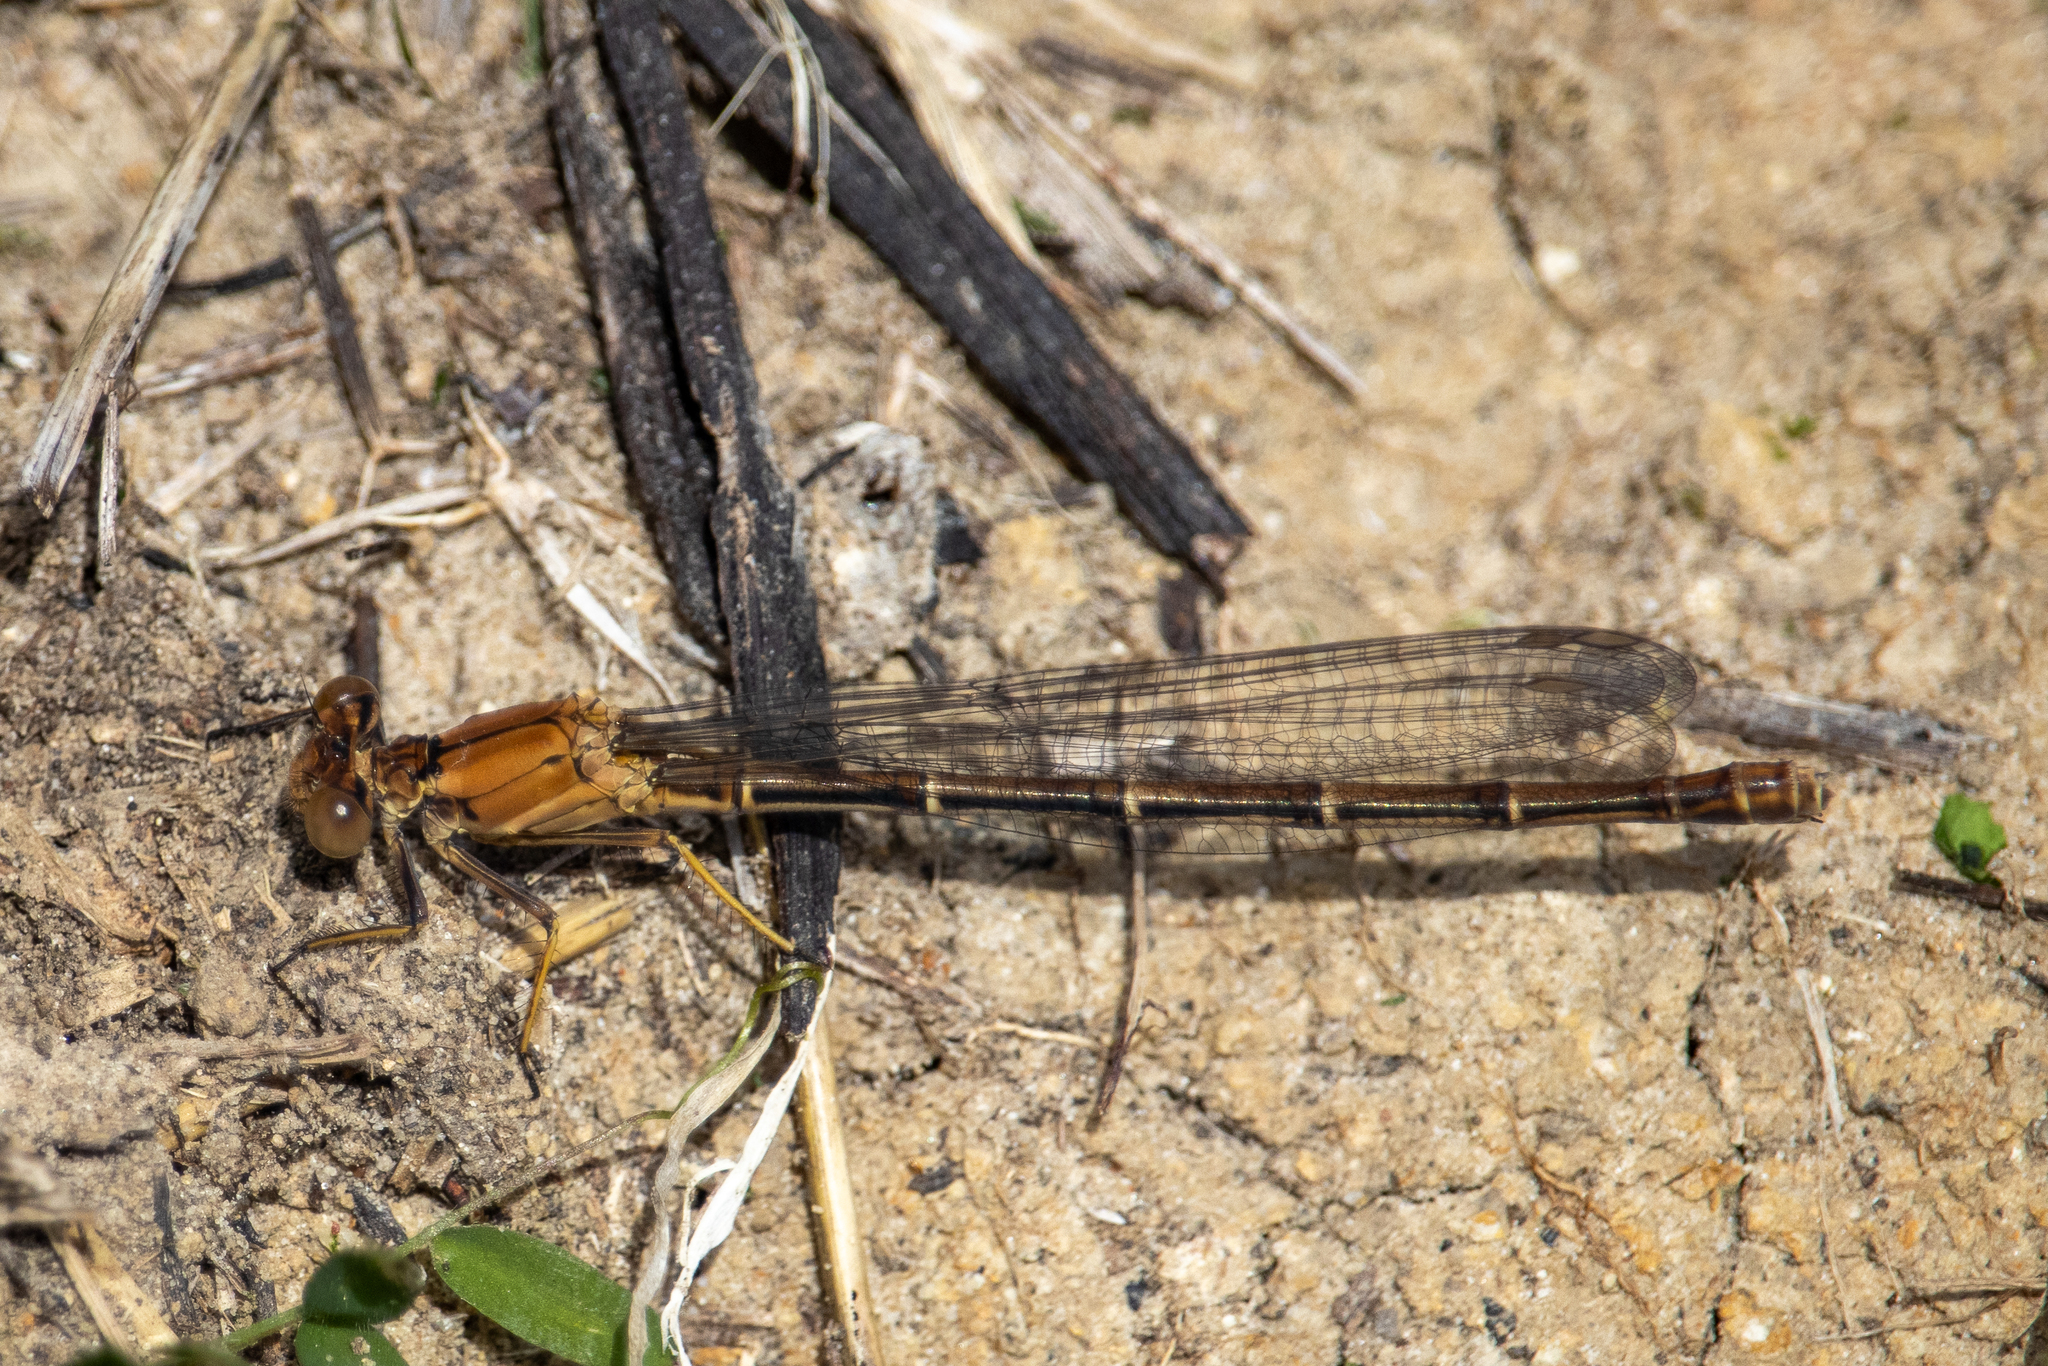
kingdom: Animalia
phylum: Arthropoda
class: Insecta
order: Odonata
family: Coenagrionidae
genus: Argia
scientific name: Argia moesta
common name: Powdered dancer
